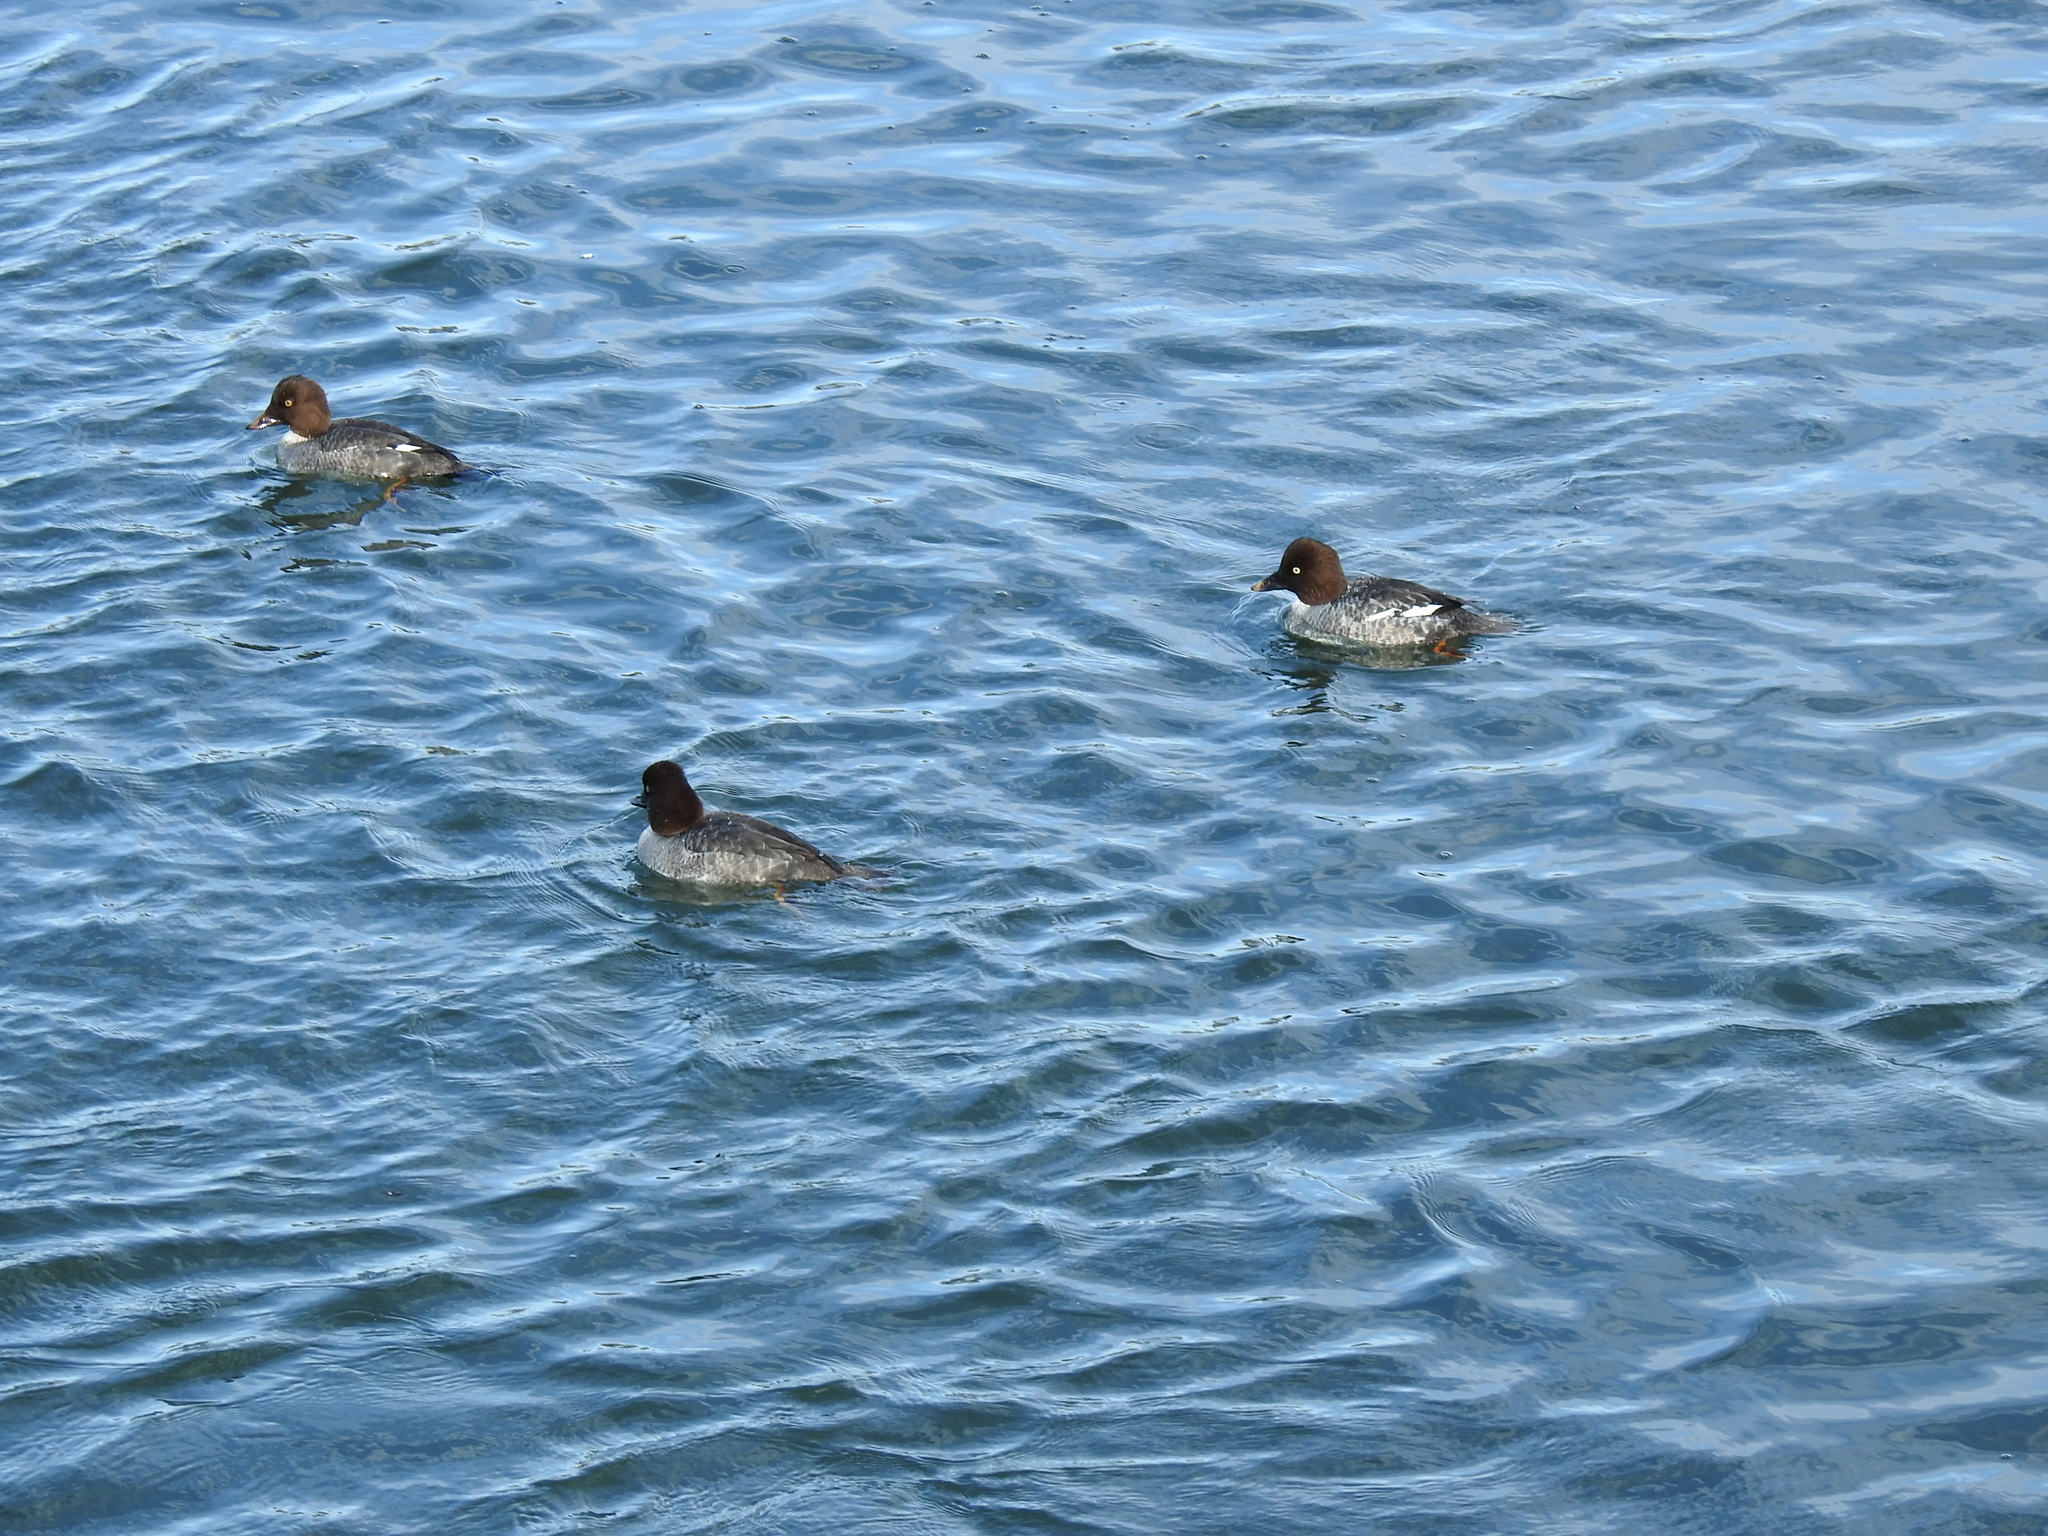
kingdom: Animalia
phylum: Chordata
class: Aves
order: Anseriformes
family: Anatidae
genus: Bucephala
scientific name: Bucephala clangula
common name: Common goldeneye
